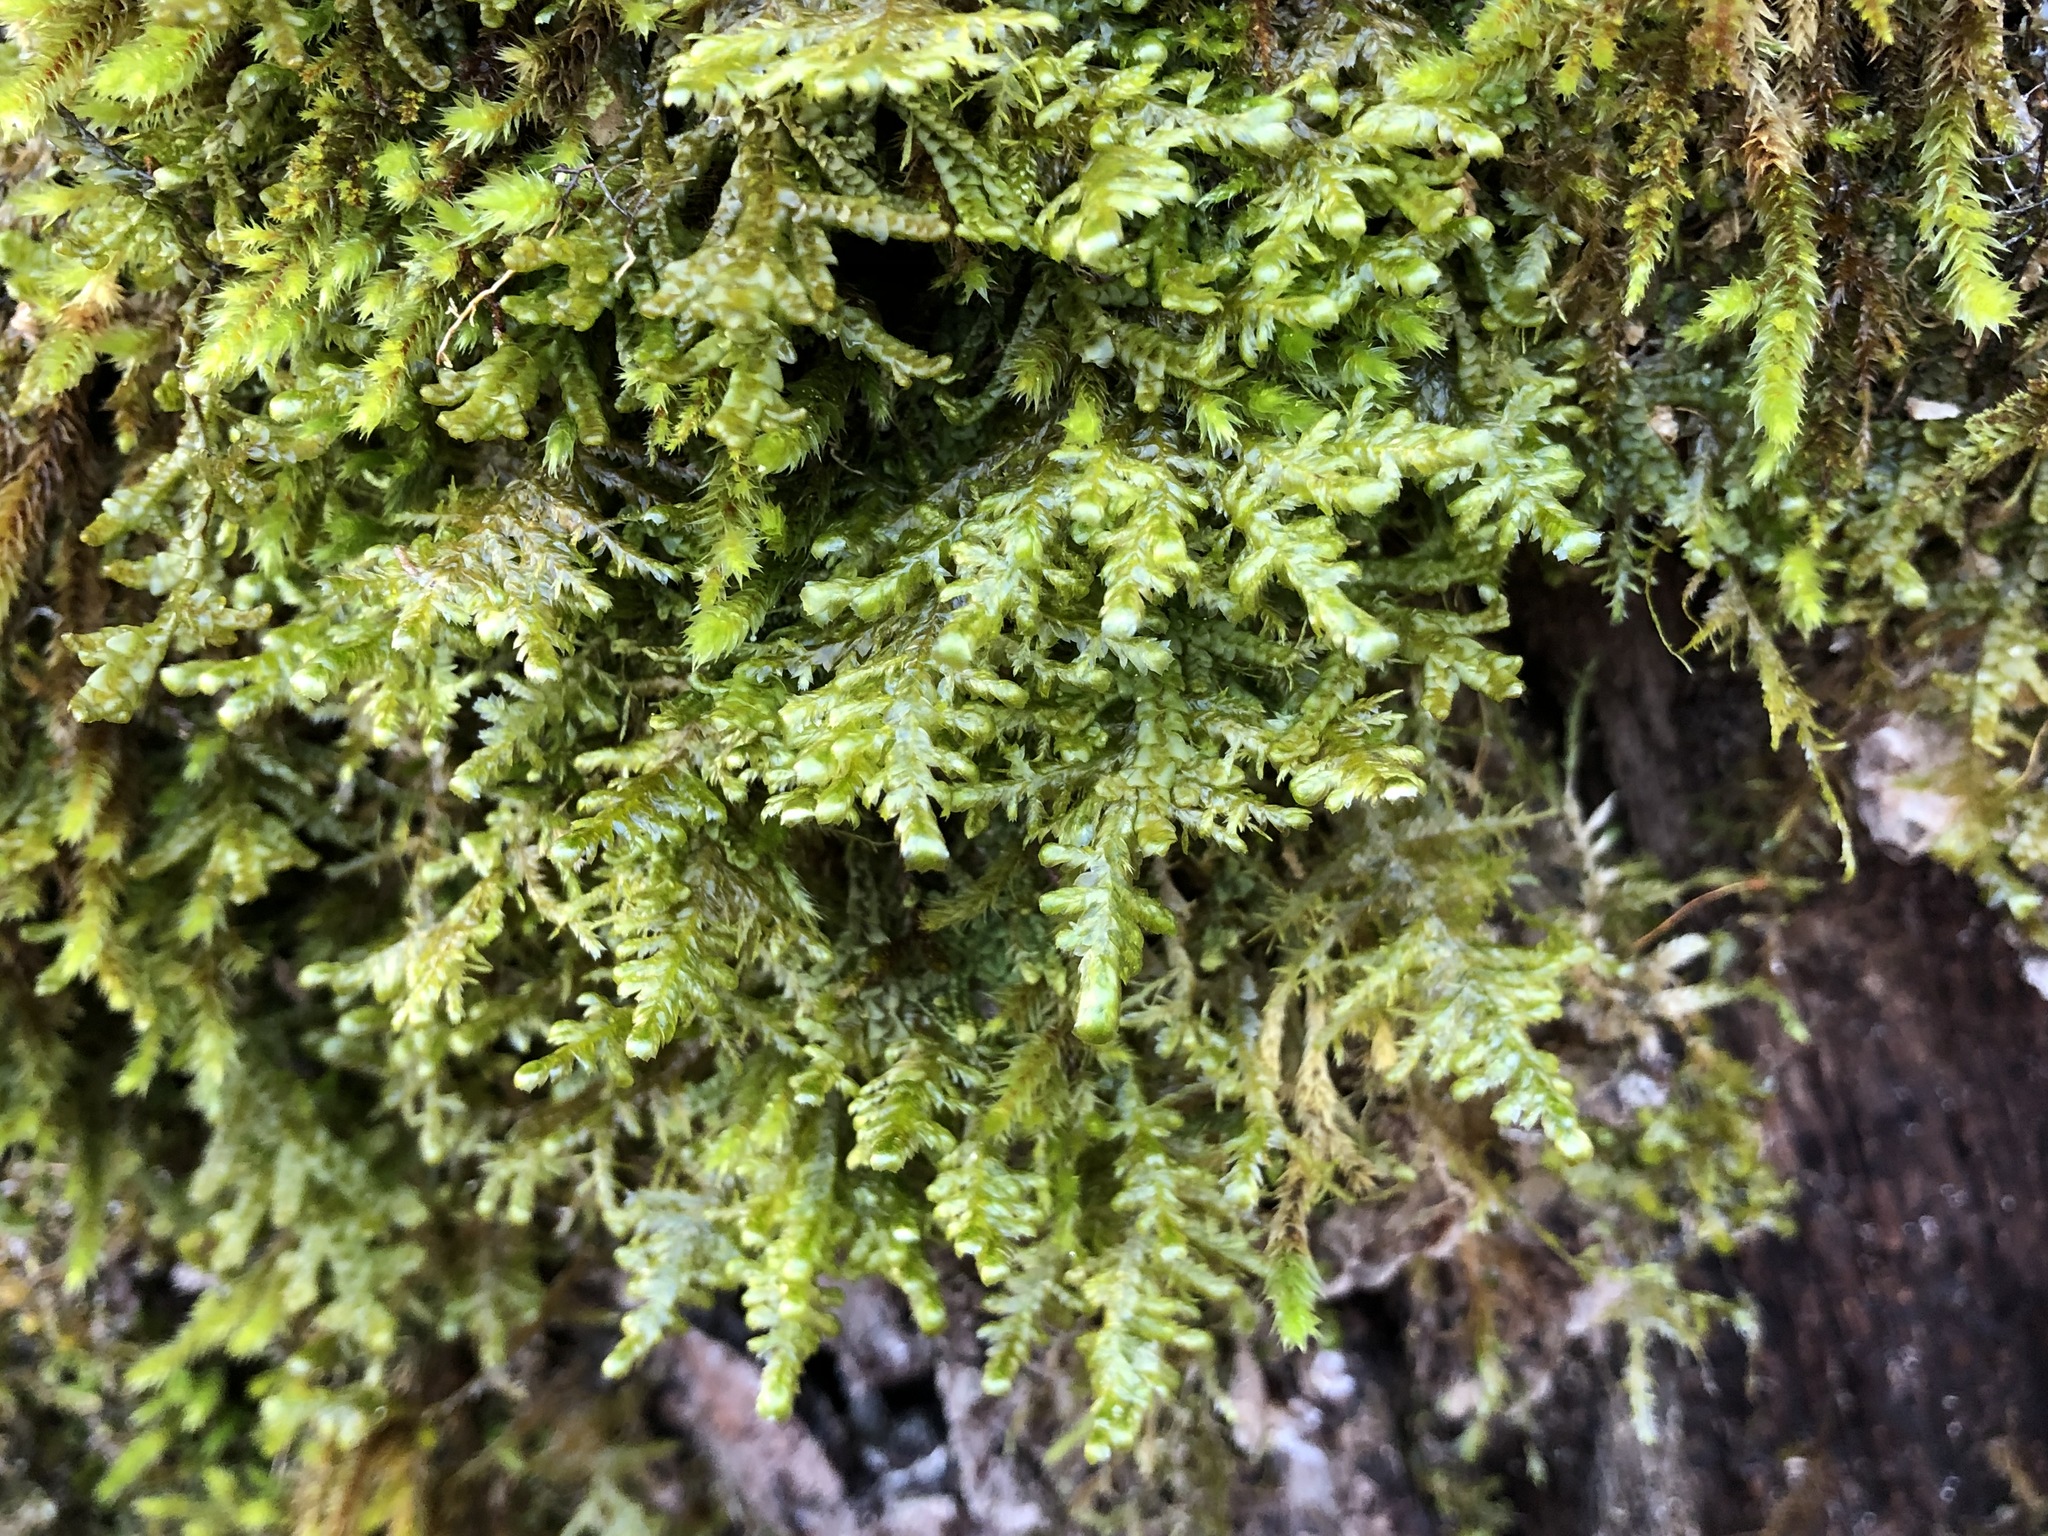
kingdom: Plantae
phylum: Bryophyta
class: Bryopsida
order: Hypnales
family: Neckeraceae
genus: Alleniella
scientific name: Alleniella complanata
